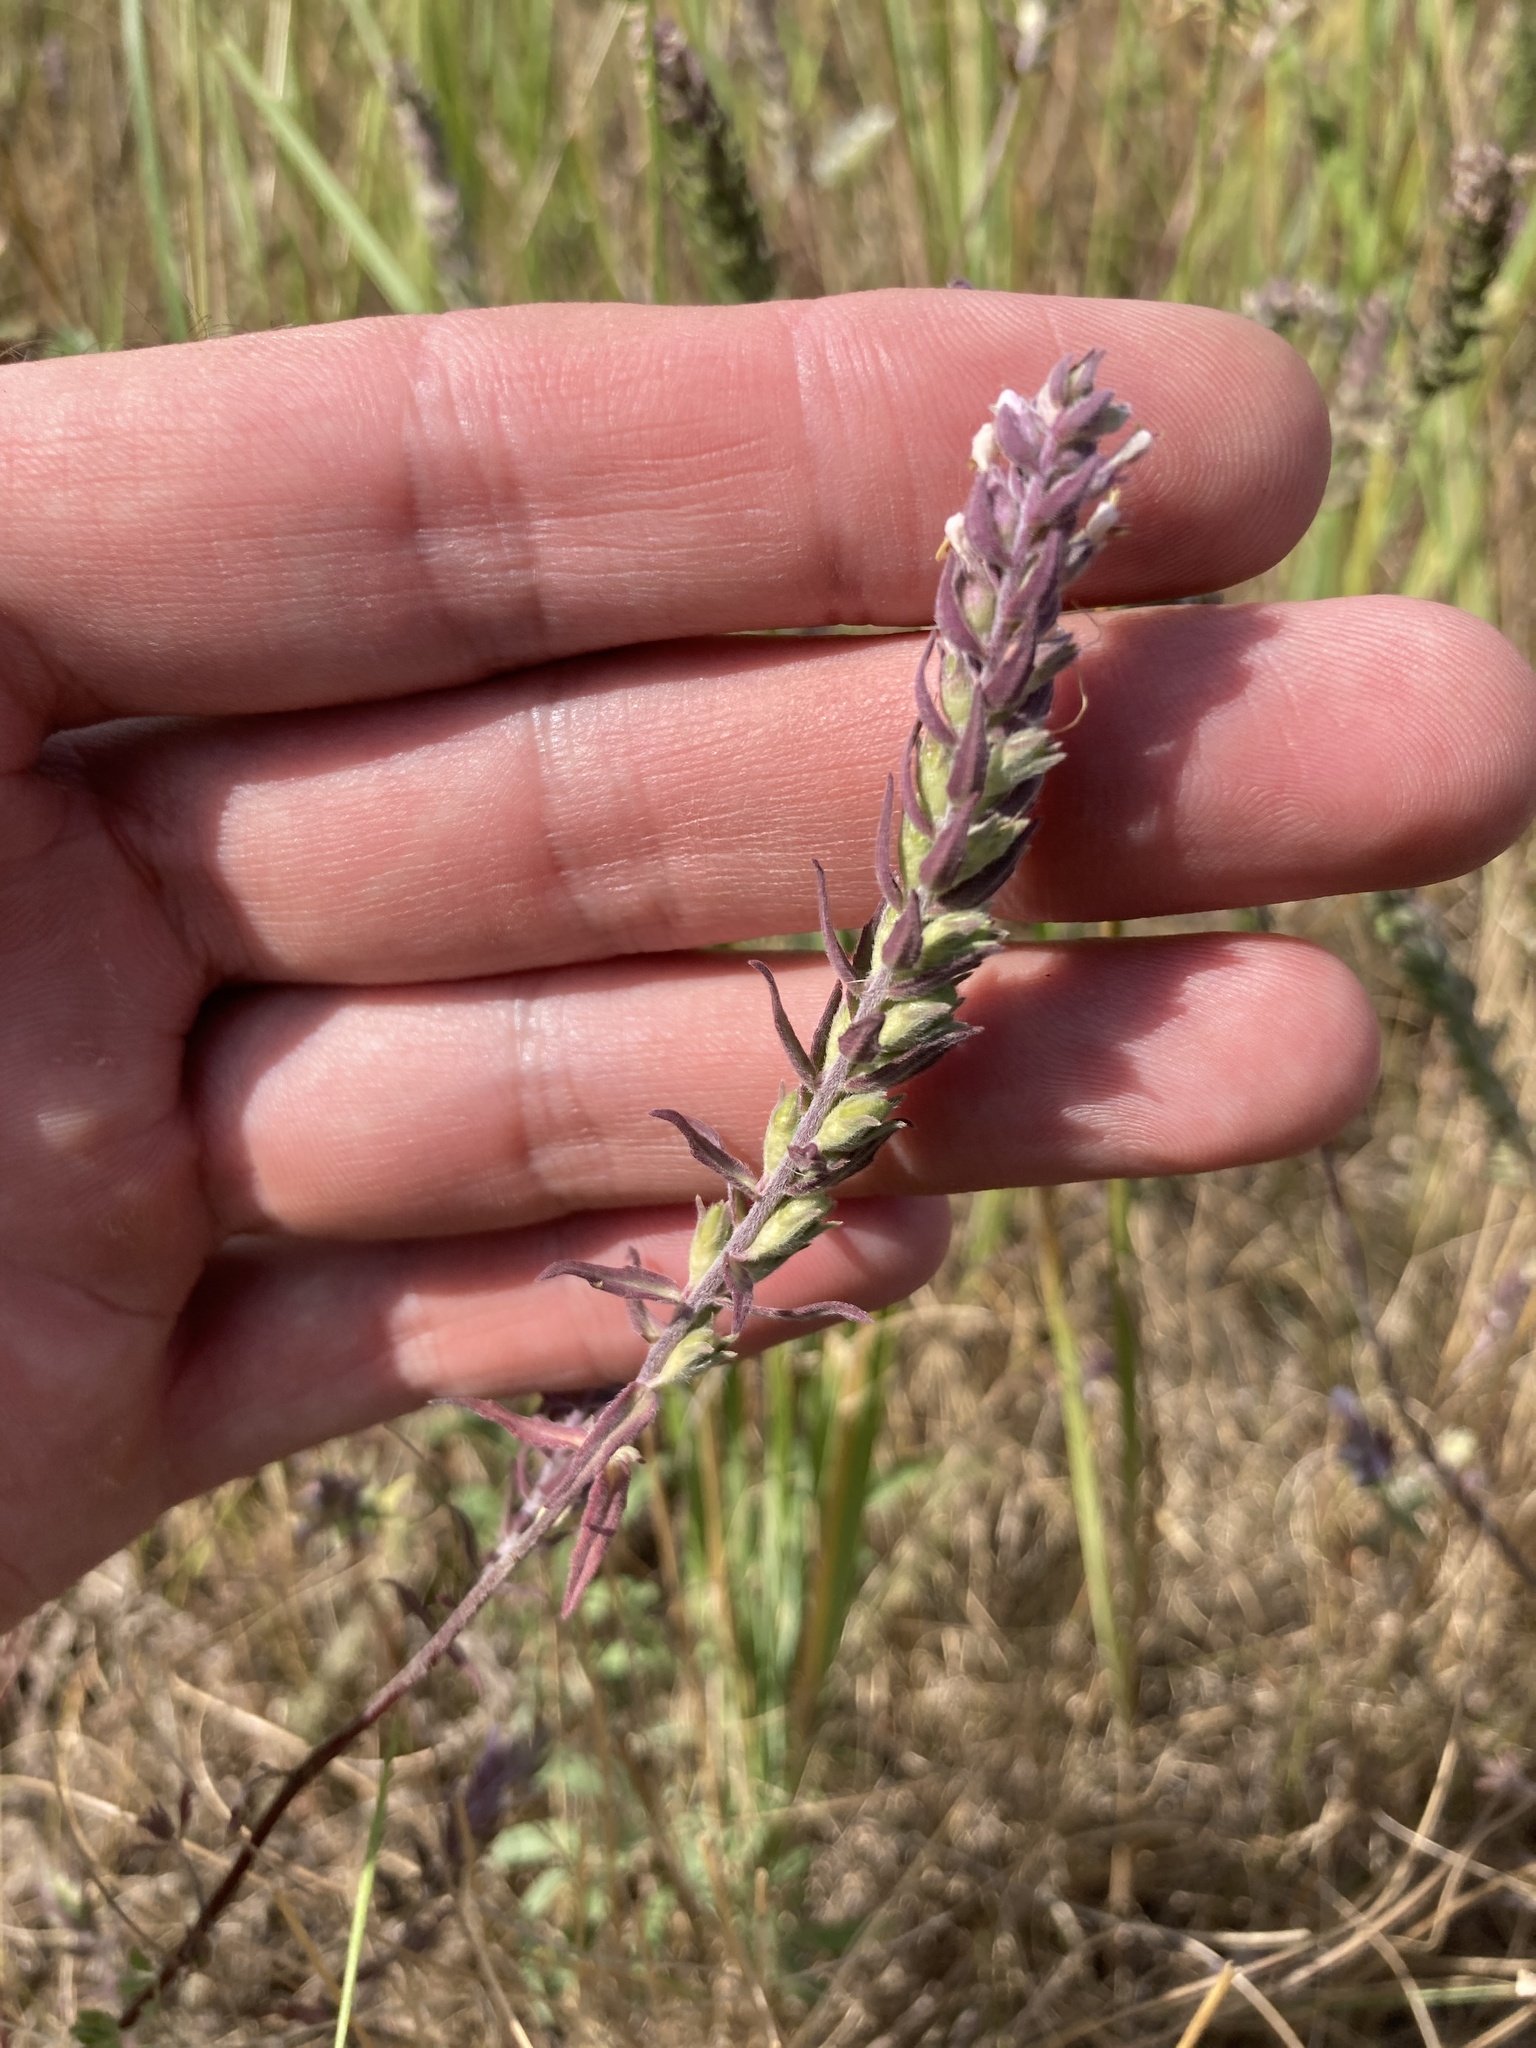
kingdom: Plantae
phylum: Tracheophyta
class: Magnoliopsida
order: Lamiales
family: Orobanchaceae
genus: Odontites
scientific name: Odontites vulgaris
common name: Broomrape
